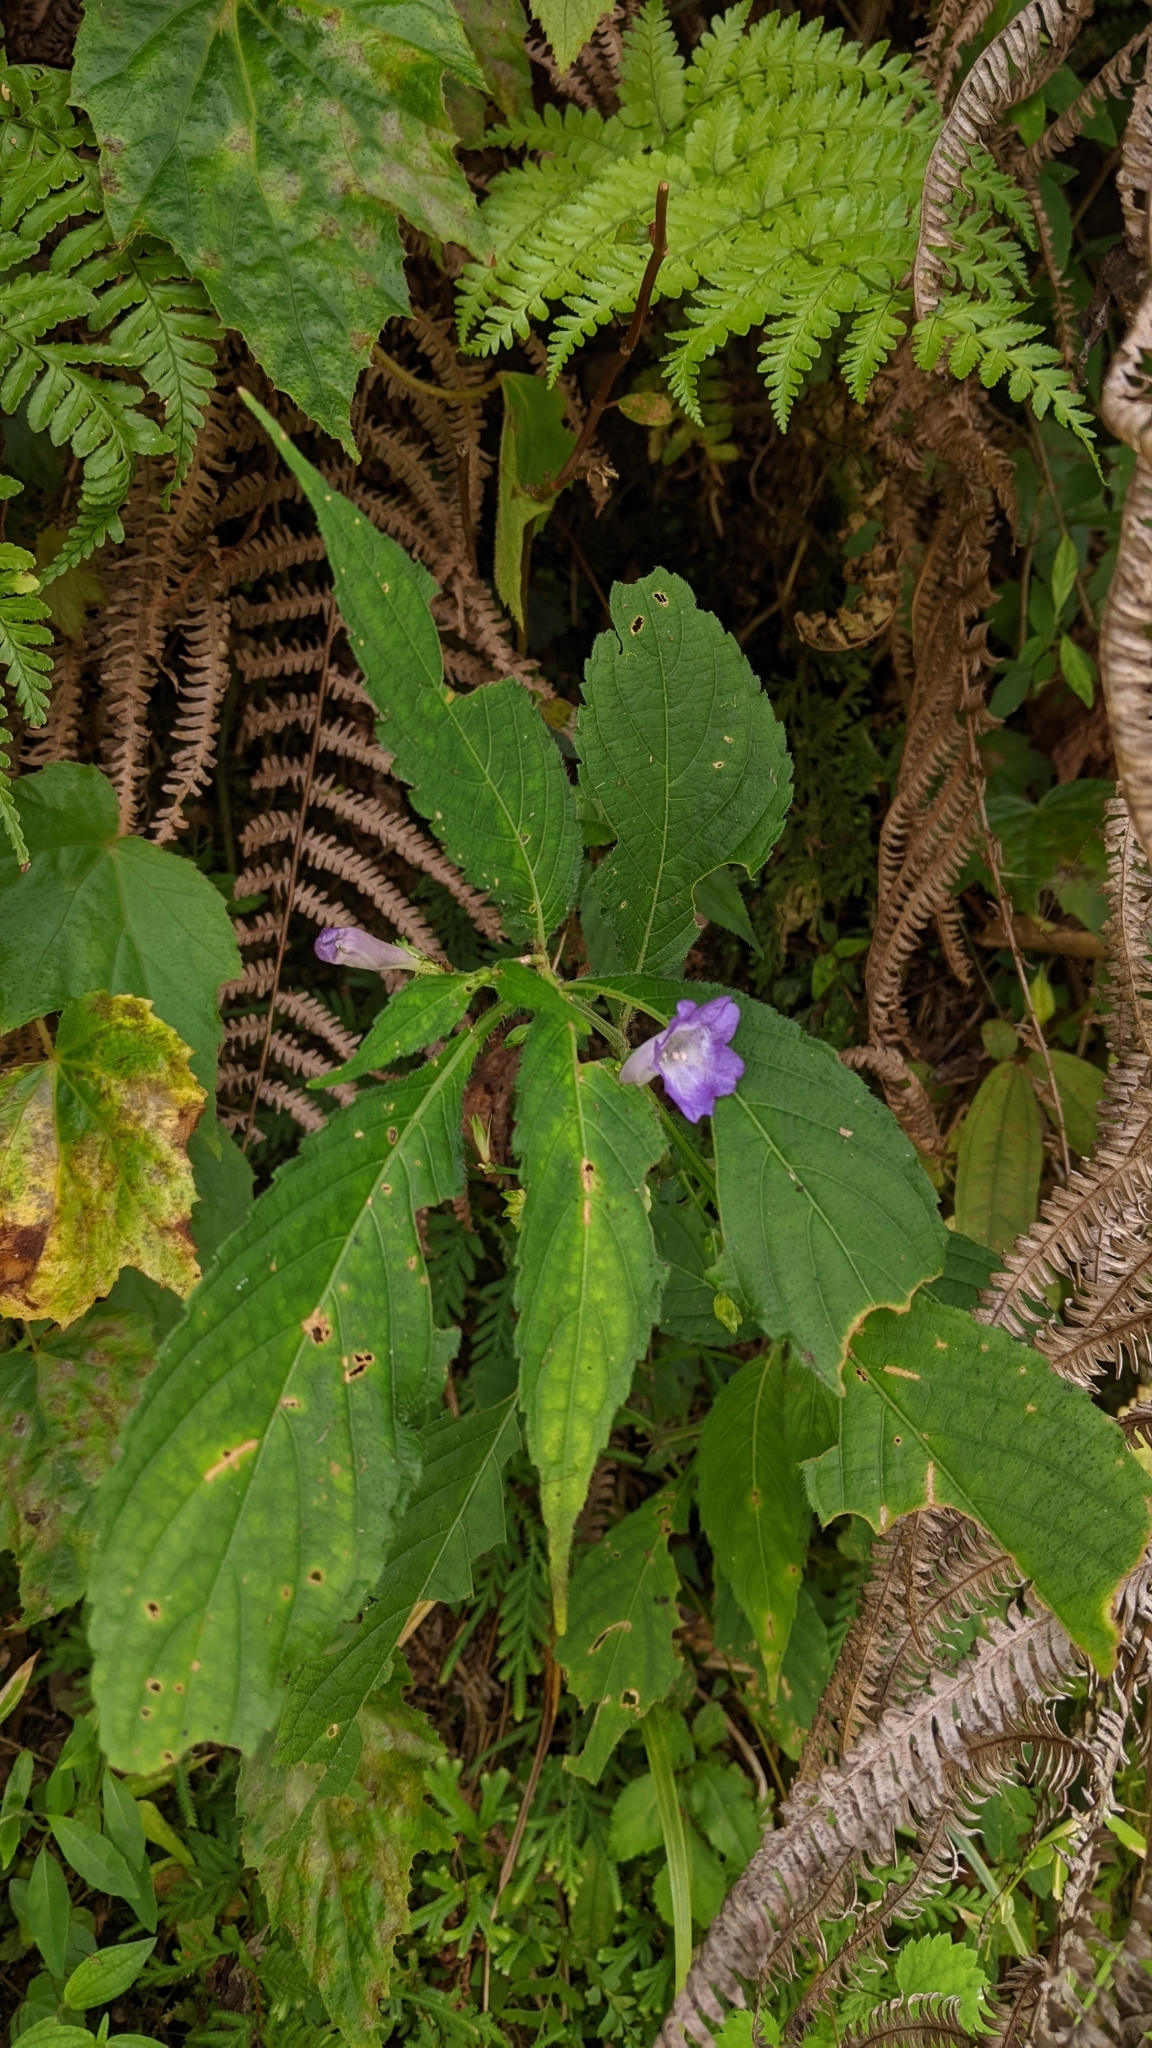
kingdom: Plantae
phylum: Tracheophyta
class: Magnoliopsida
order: Lamiales
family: Acanthaceae
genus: Strobilanthes
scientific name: Strobilanthes formosana
